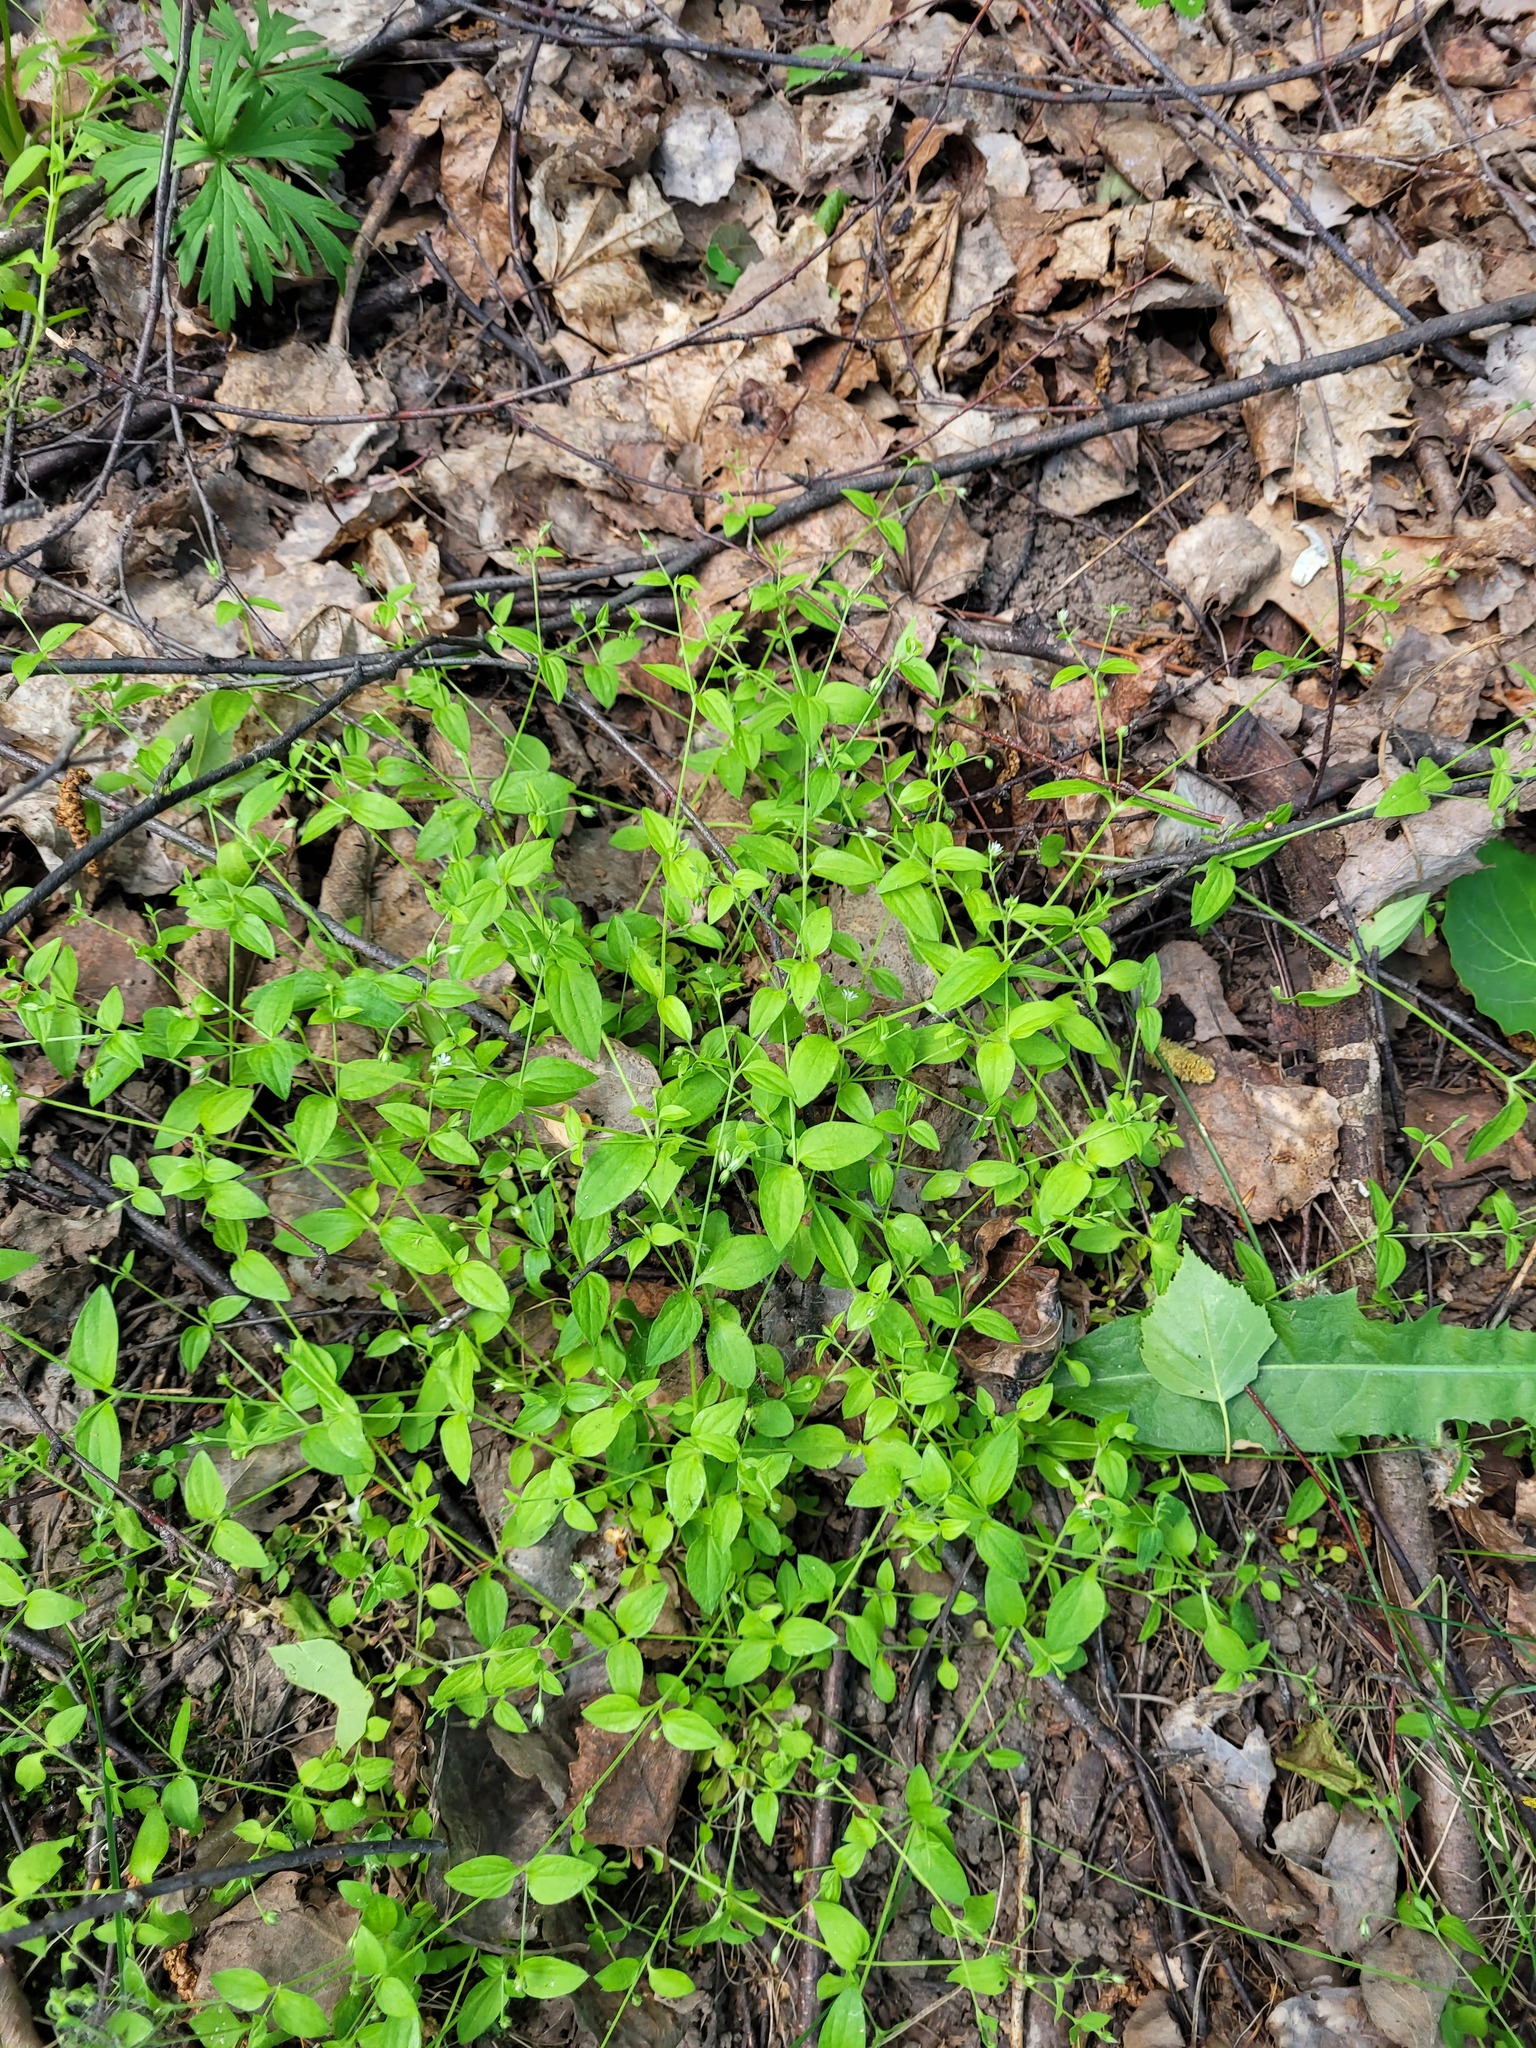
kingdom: Plantae
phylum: Tracheophyta
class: Magnoliopsida
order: Caryophyllales
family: Caryophyllaceae
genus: Moehringia
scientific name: Moehringia trinervia
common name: Three-nerved sandwort
